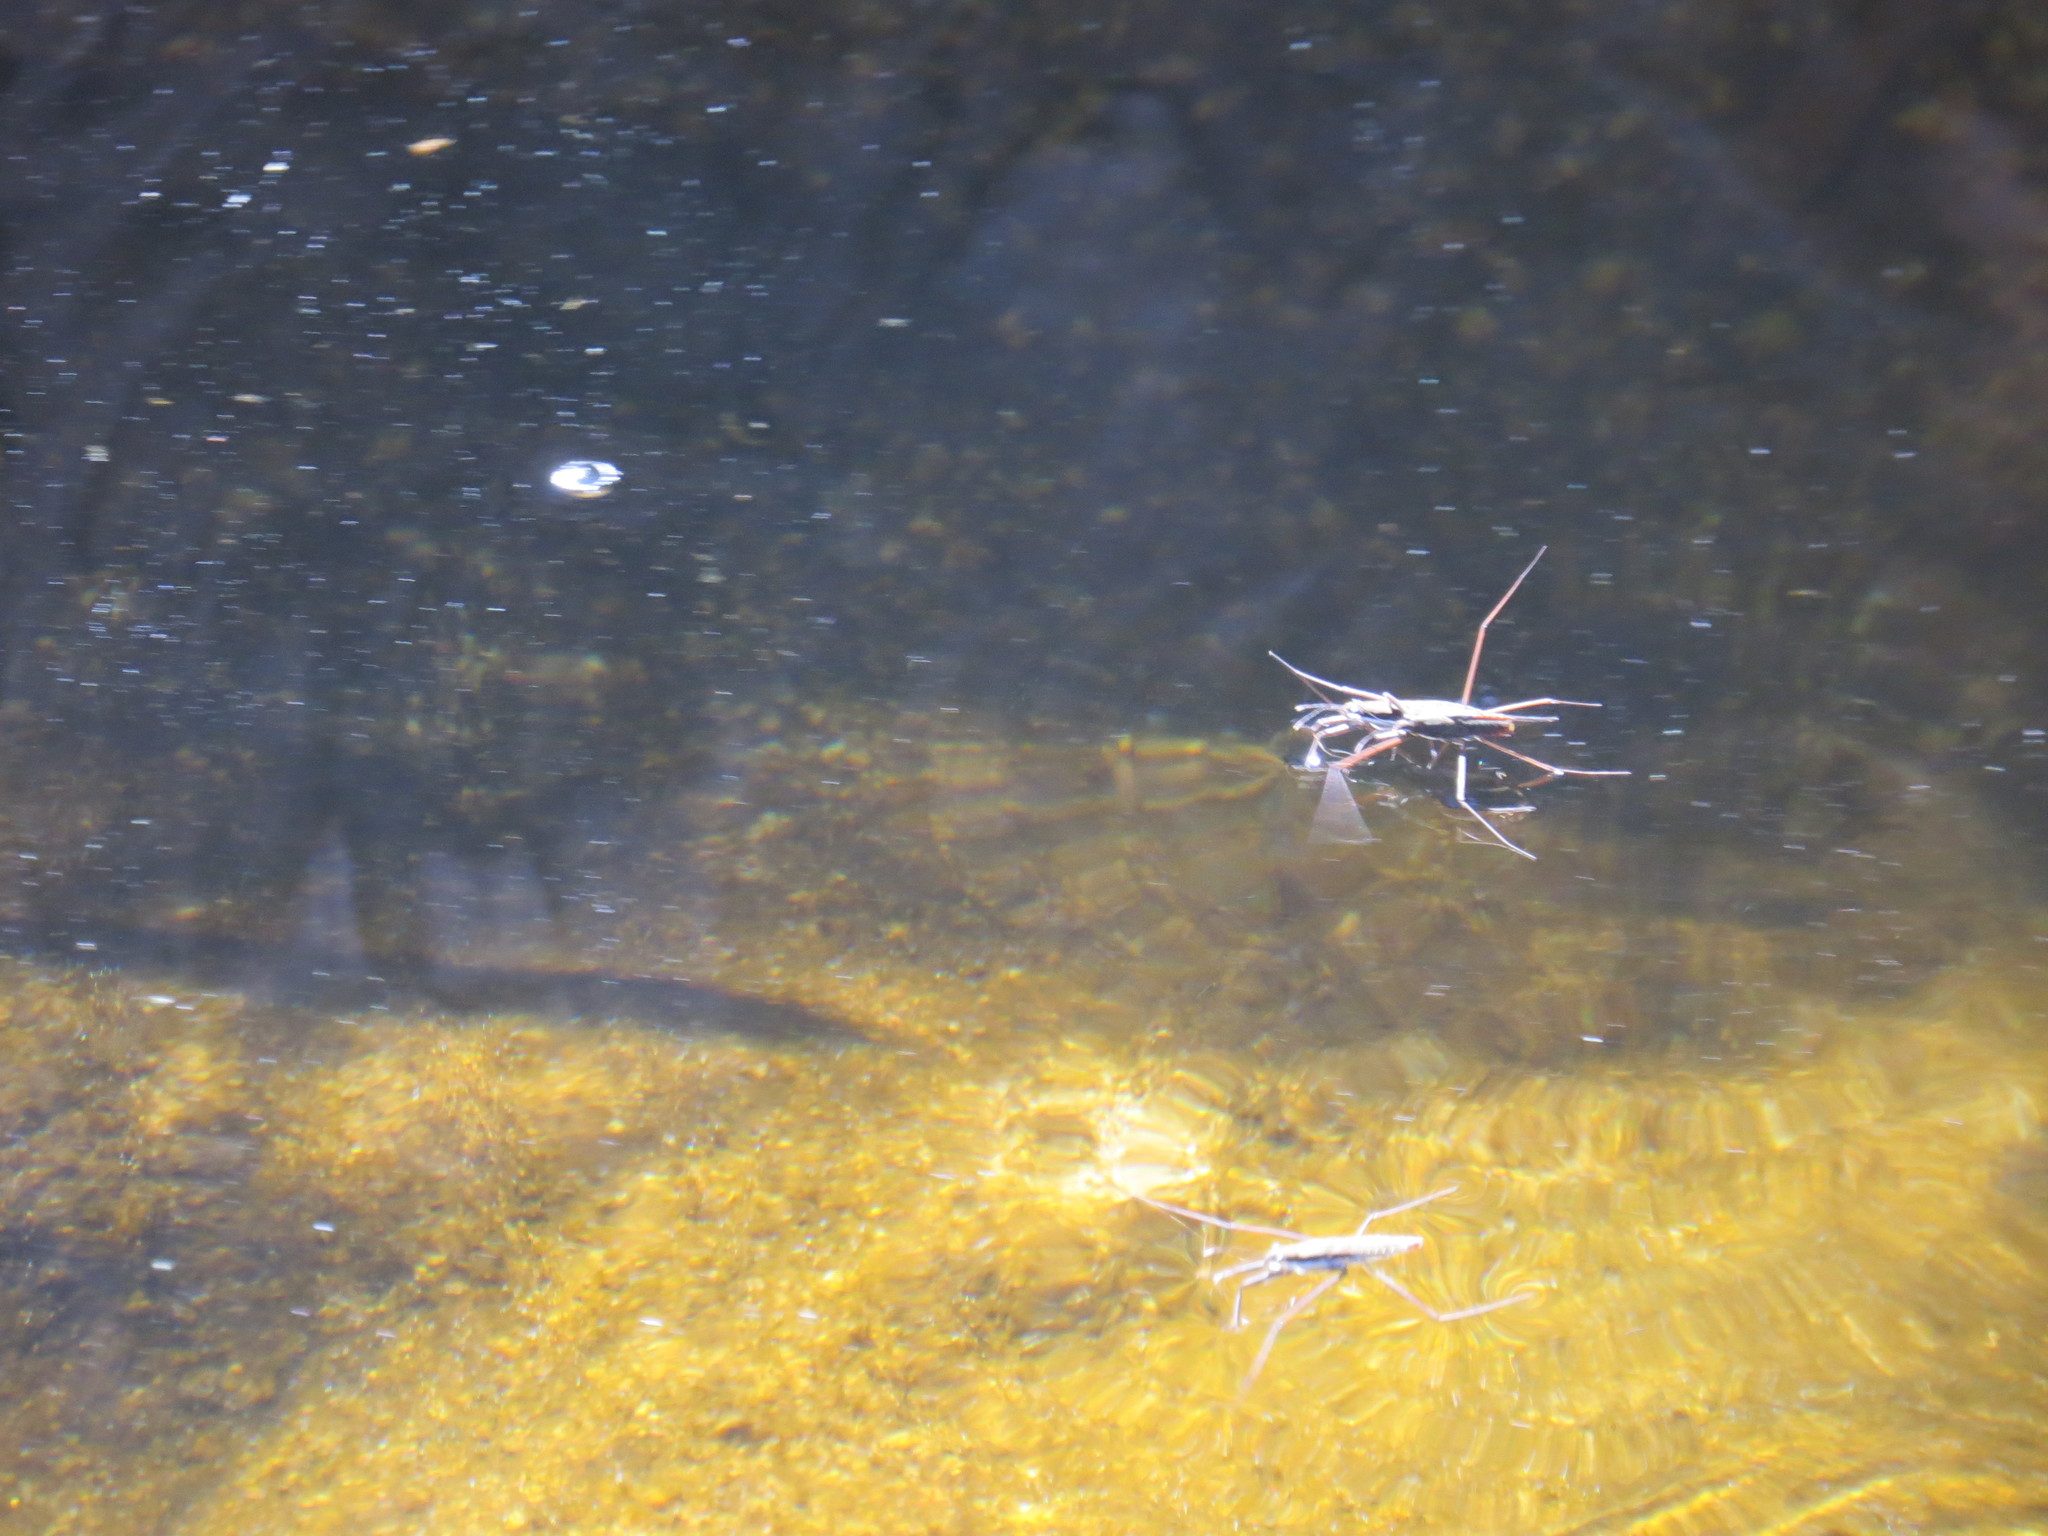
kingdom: Animalia
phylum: Arthropoda
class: Insecta
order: Hemiptera
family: Gerridae
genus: Aquarius
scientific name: Aquarius remigis
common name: Common water strider
